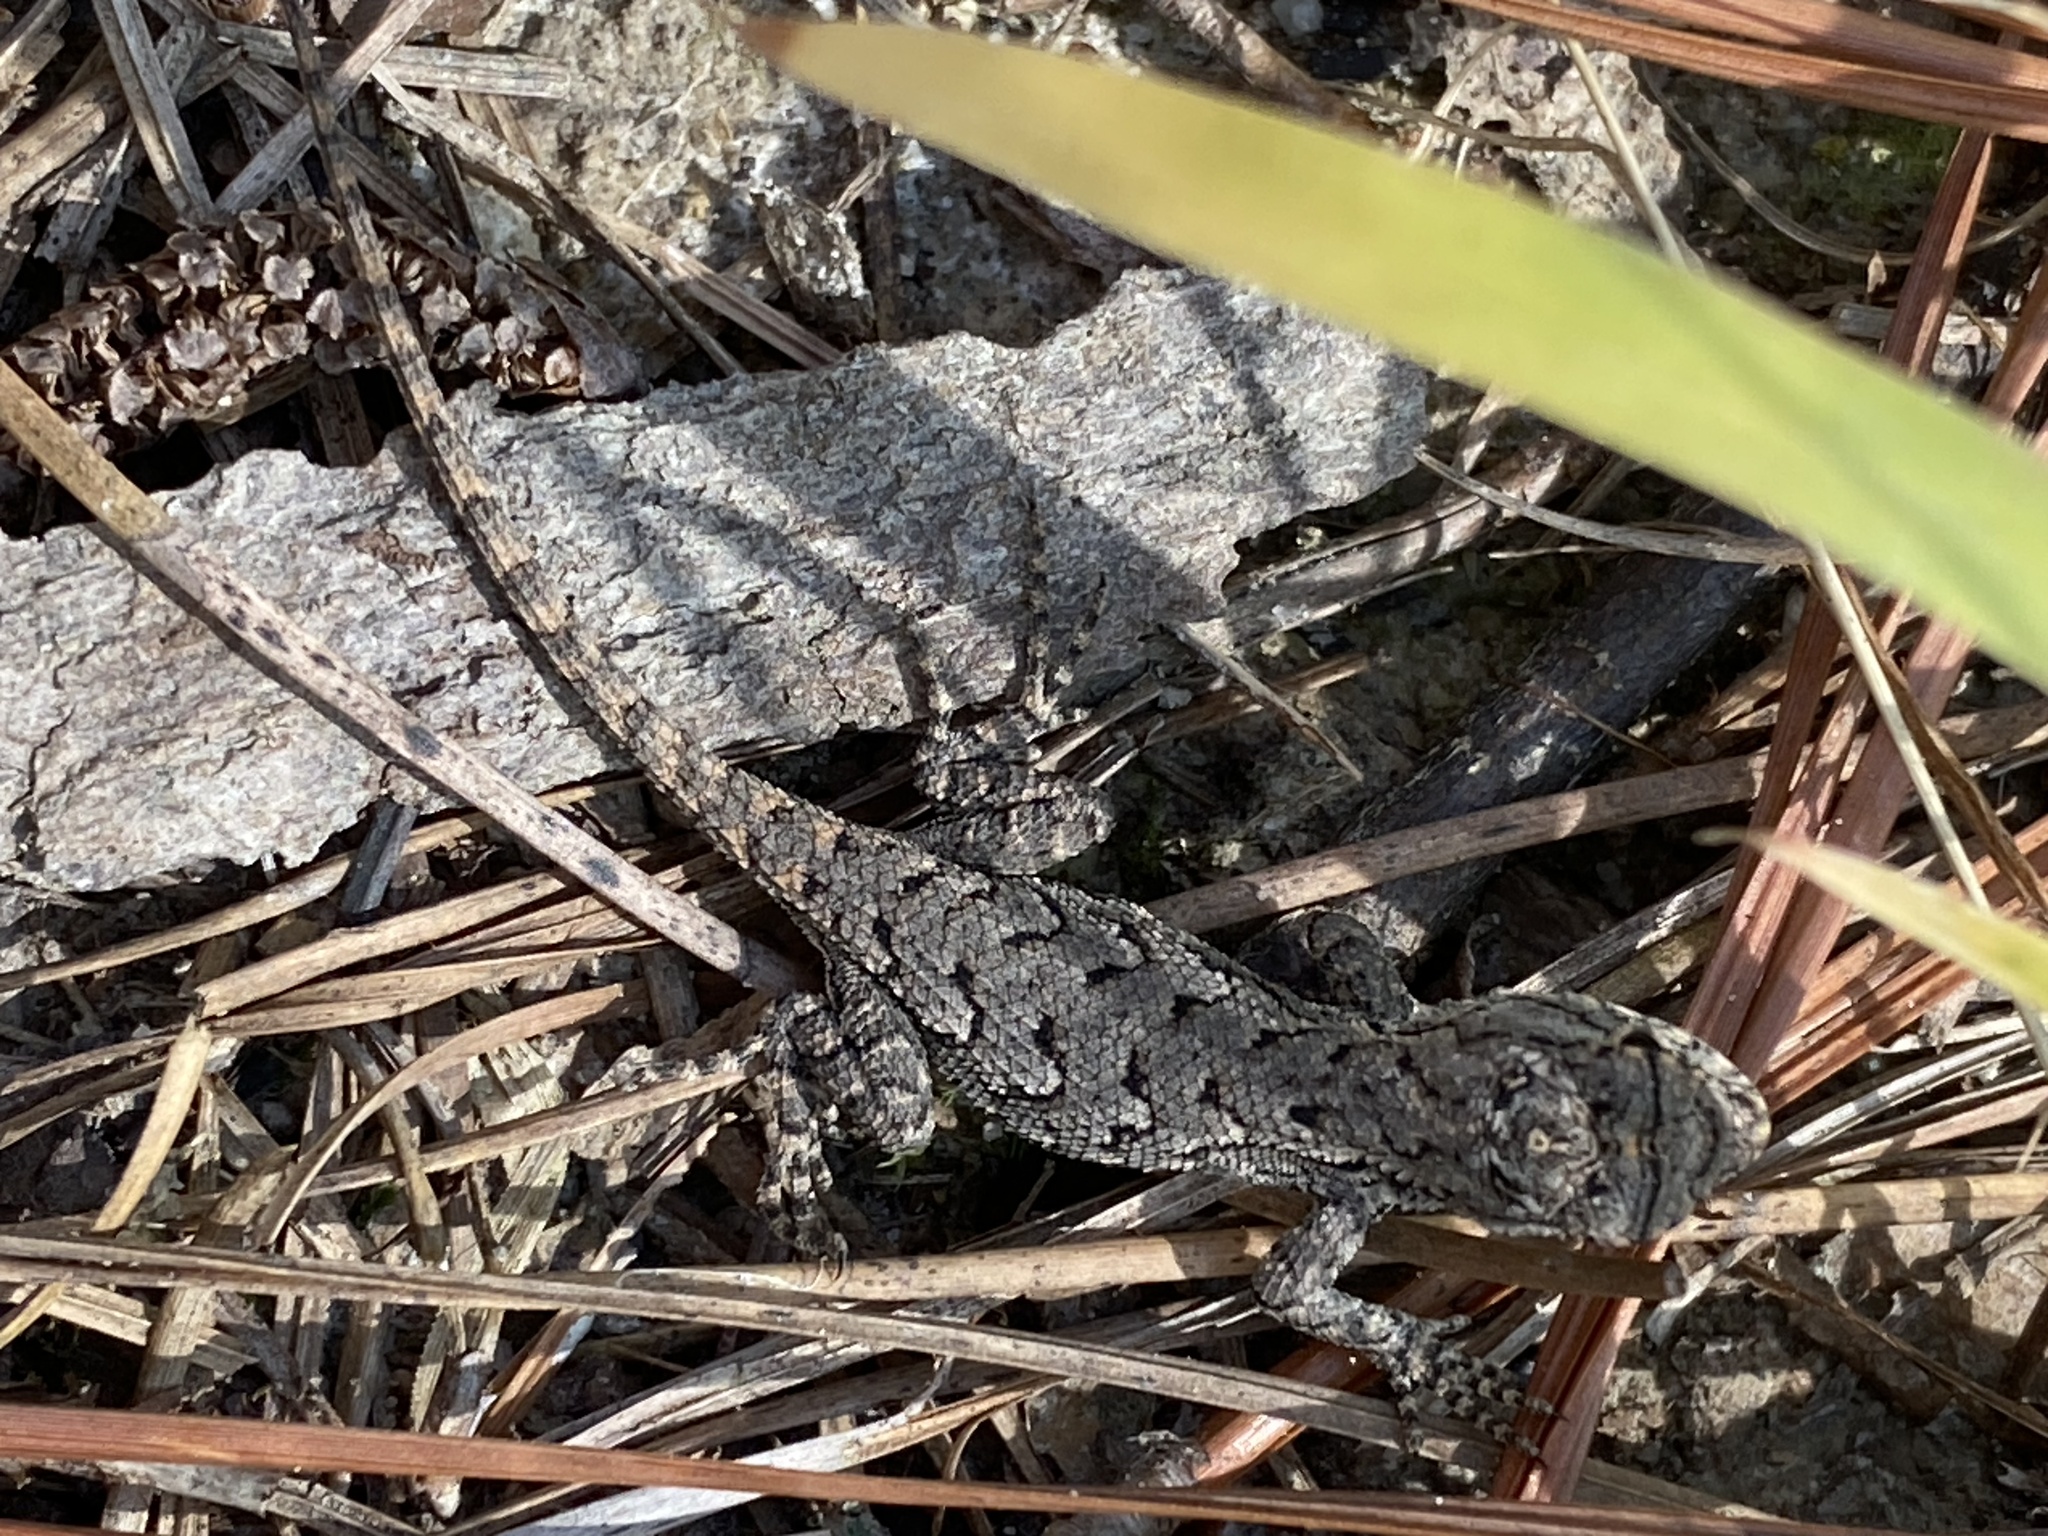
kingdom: Animalia
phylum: Chordata
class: Squamata
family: Phrynosomatidae
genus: Sceloporus
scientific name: Sceloporus undulatus
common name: Eastern fence lizard
